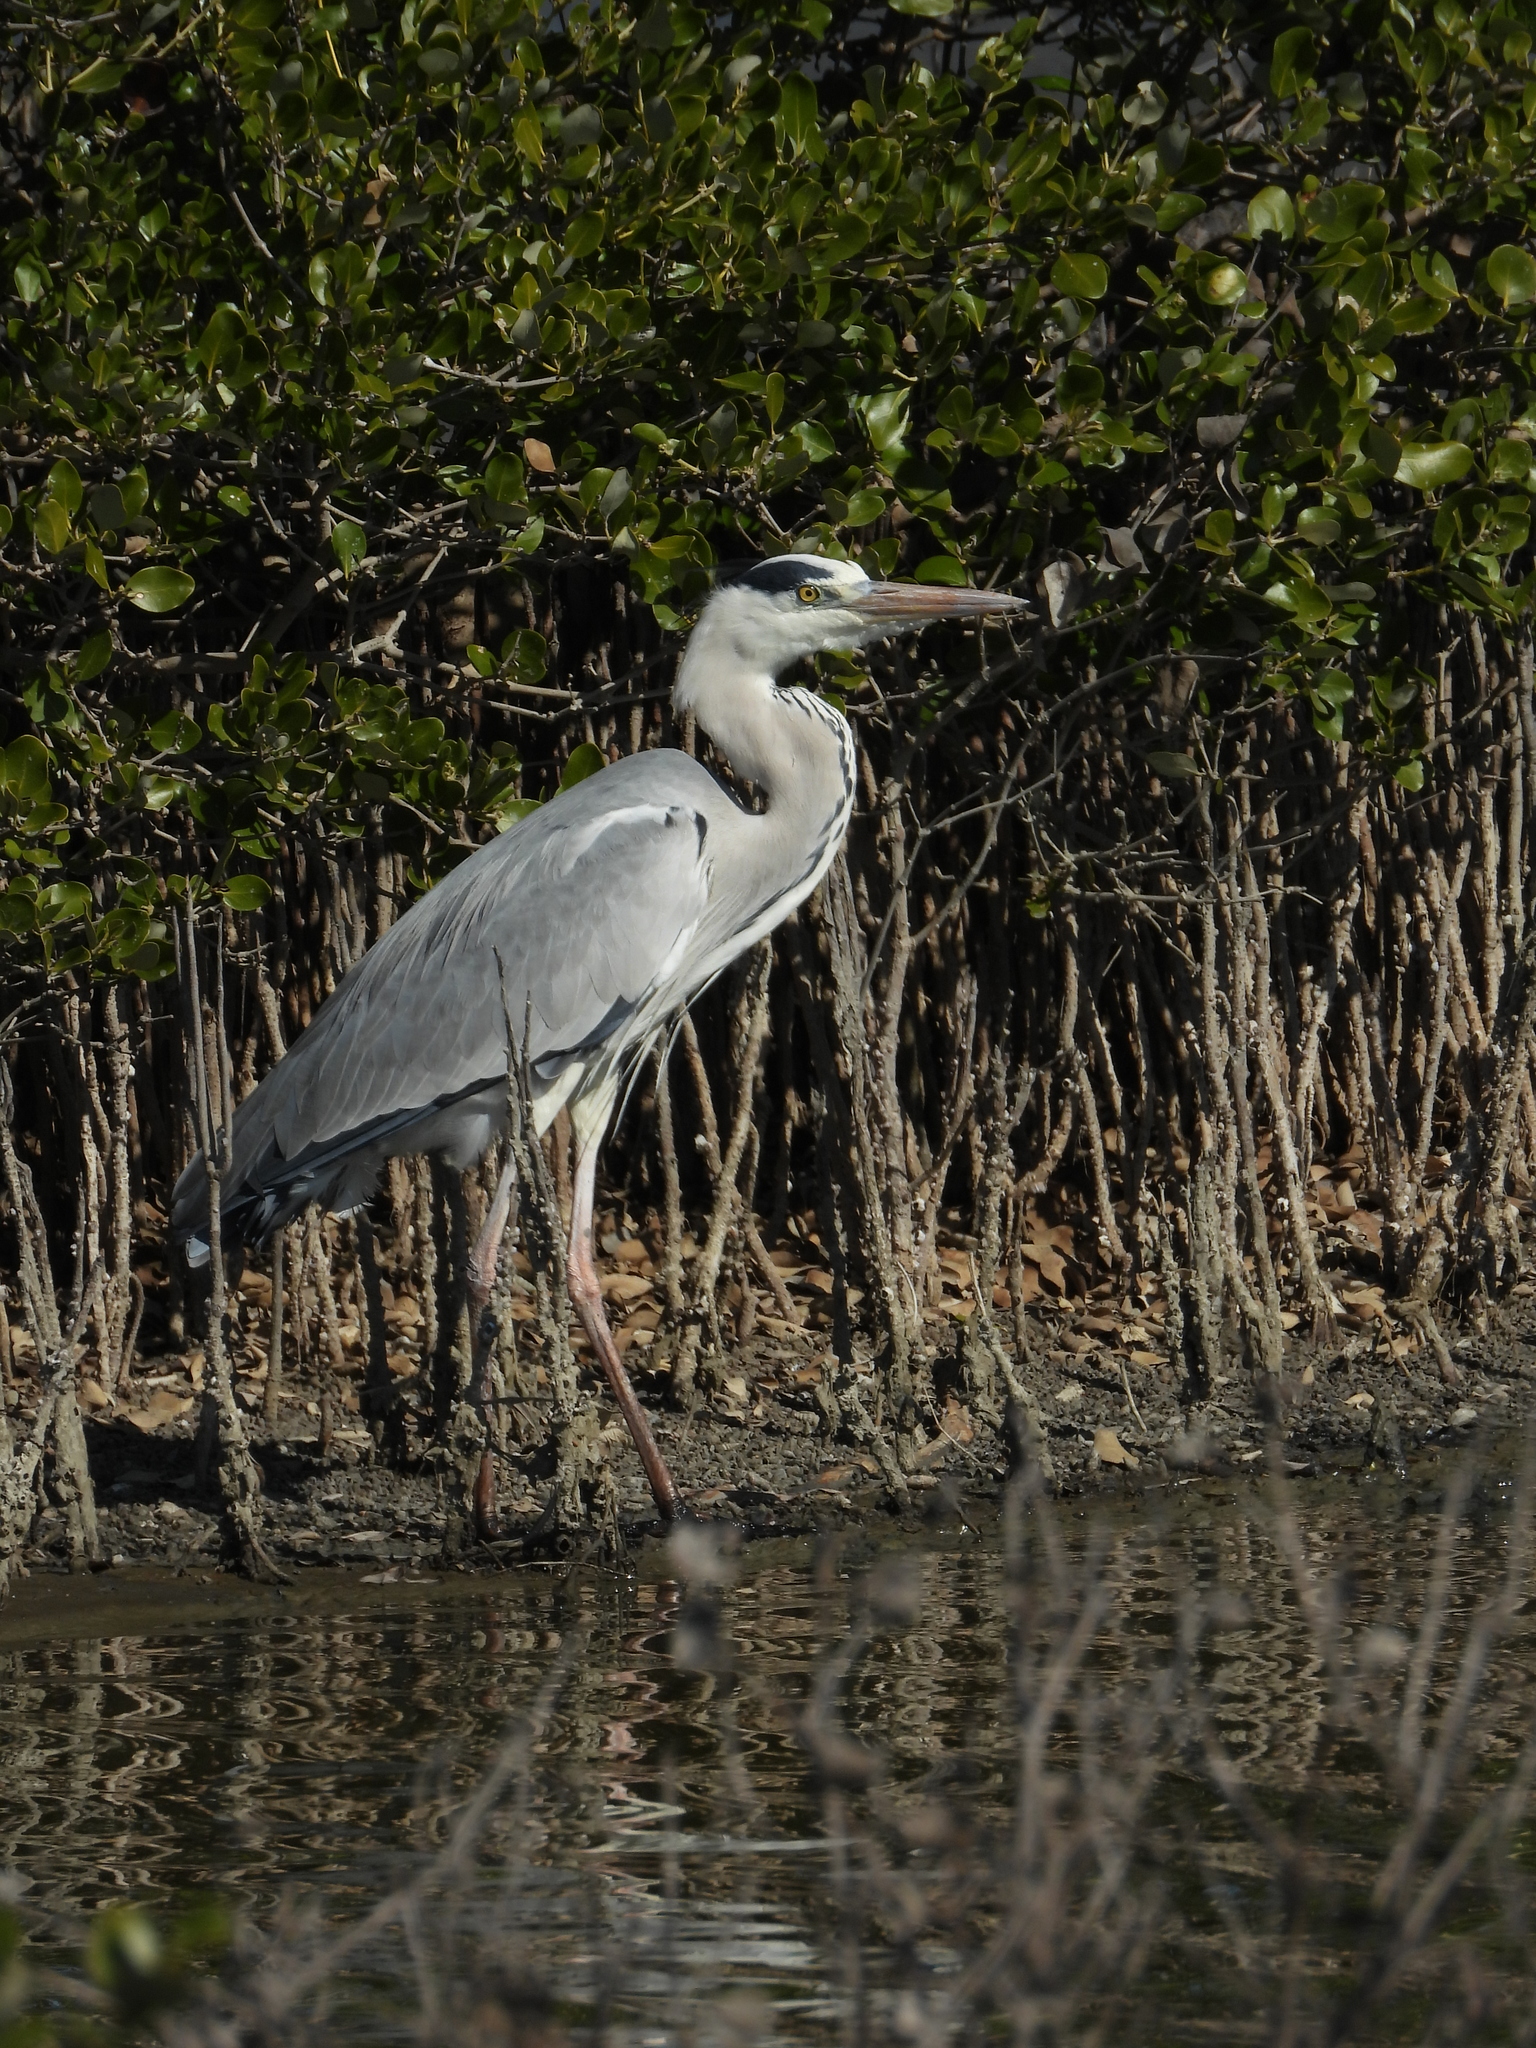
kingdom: Animalia
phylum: Chordata
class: Aves
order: Pelecaniformes
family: Ardeidae
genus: Ardea
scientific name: Ardea cinerea
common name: Grey heron
